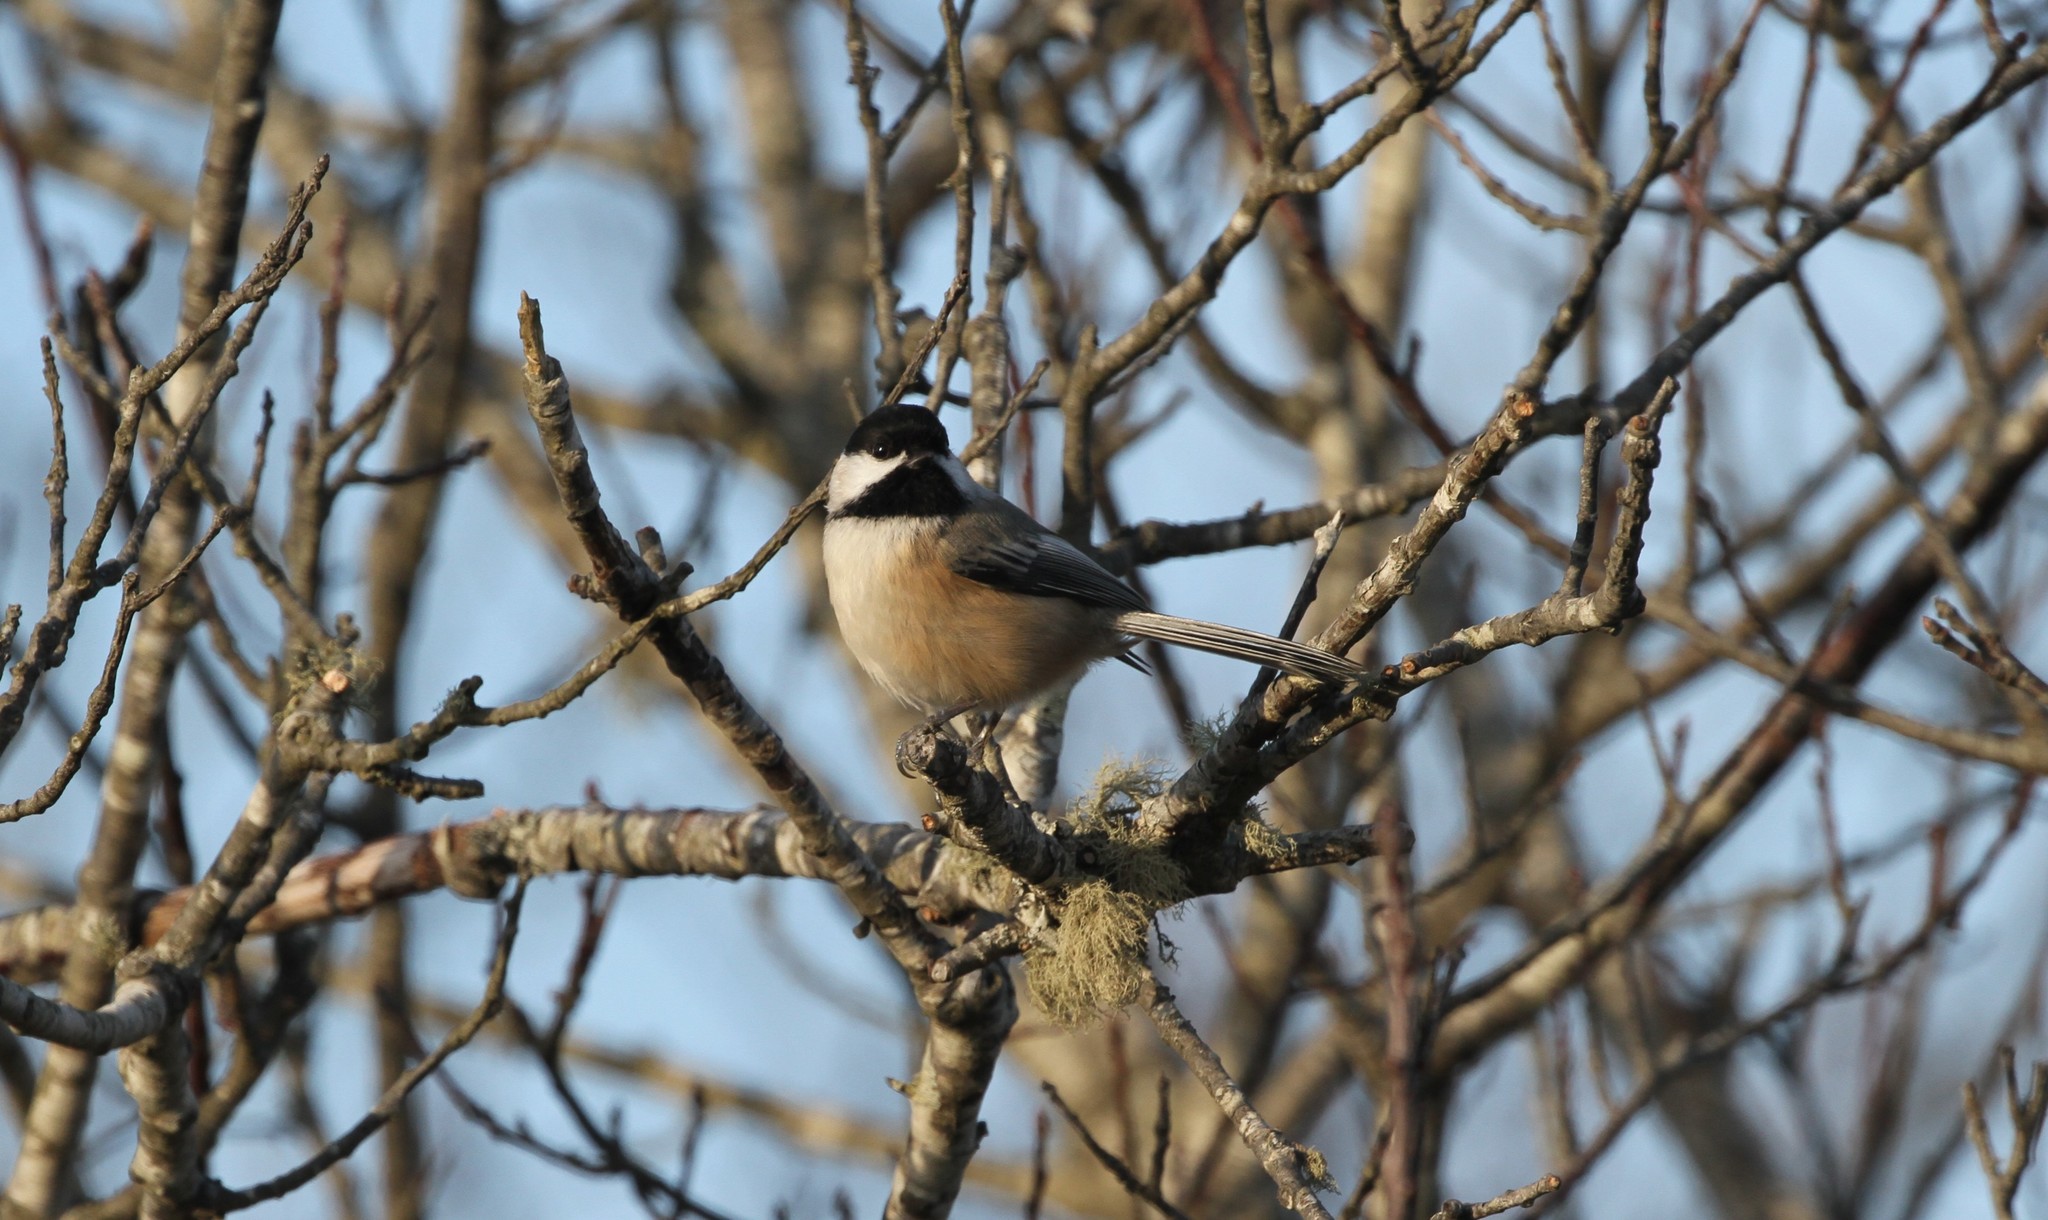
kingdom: Animalia
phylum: Chordata
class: Aves
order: Passeriformes
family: Paridae
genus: Poecile
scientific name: Poecile atricapillus
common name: Black-capped chickadee
